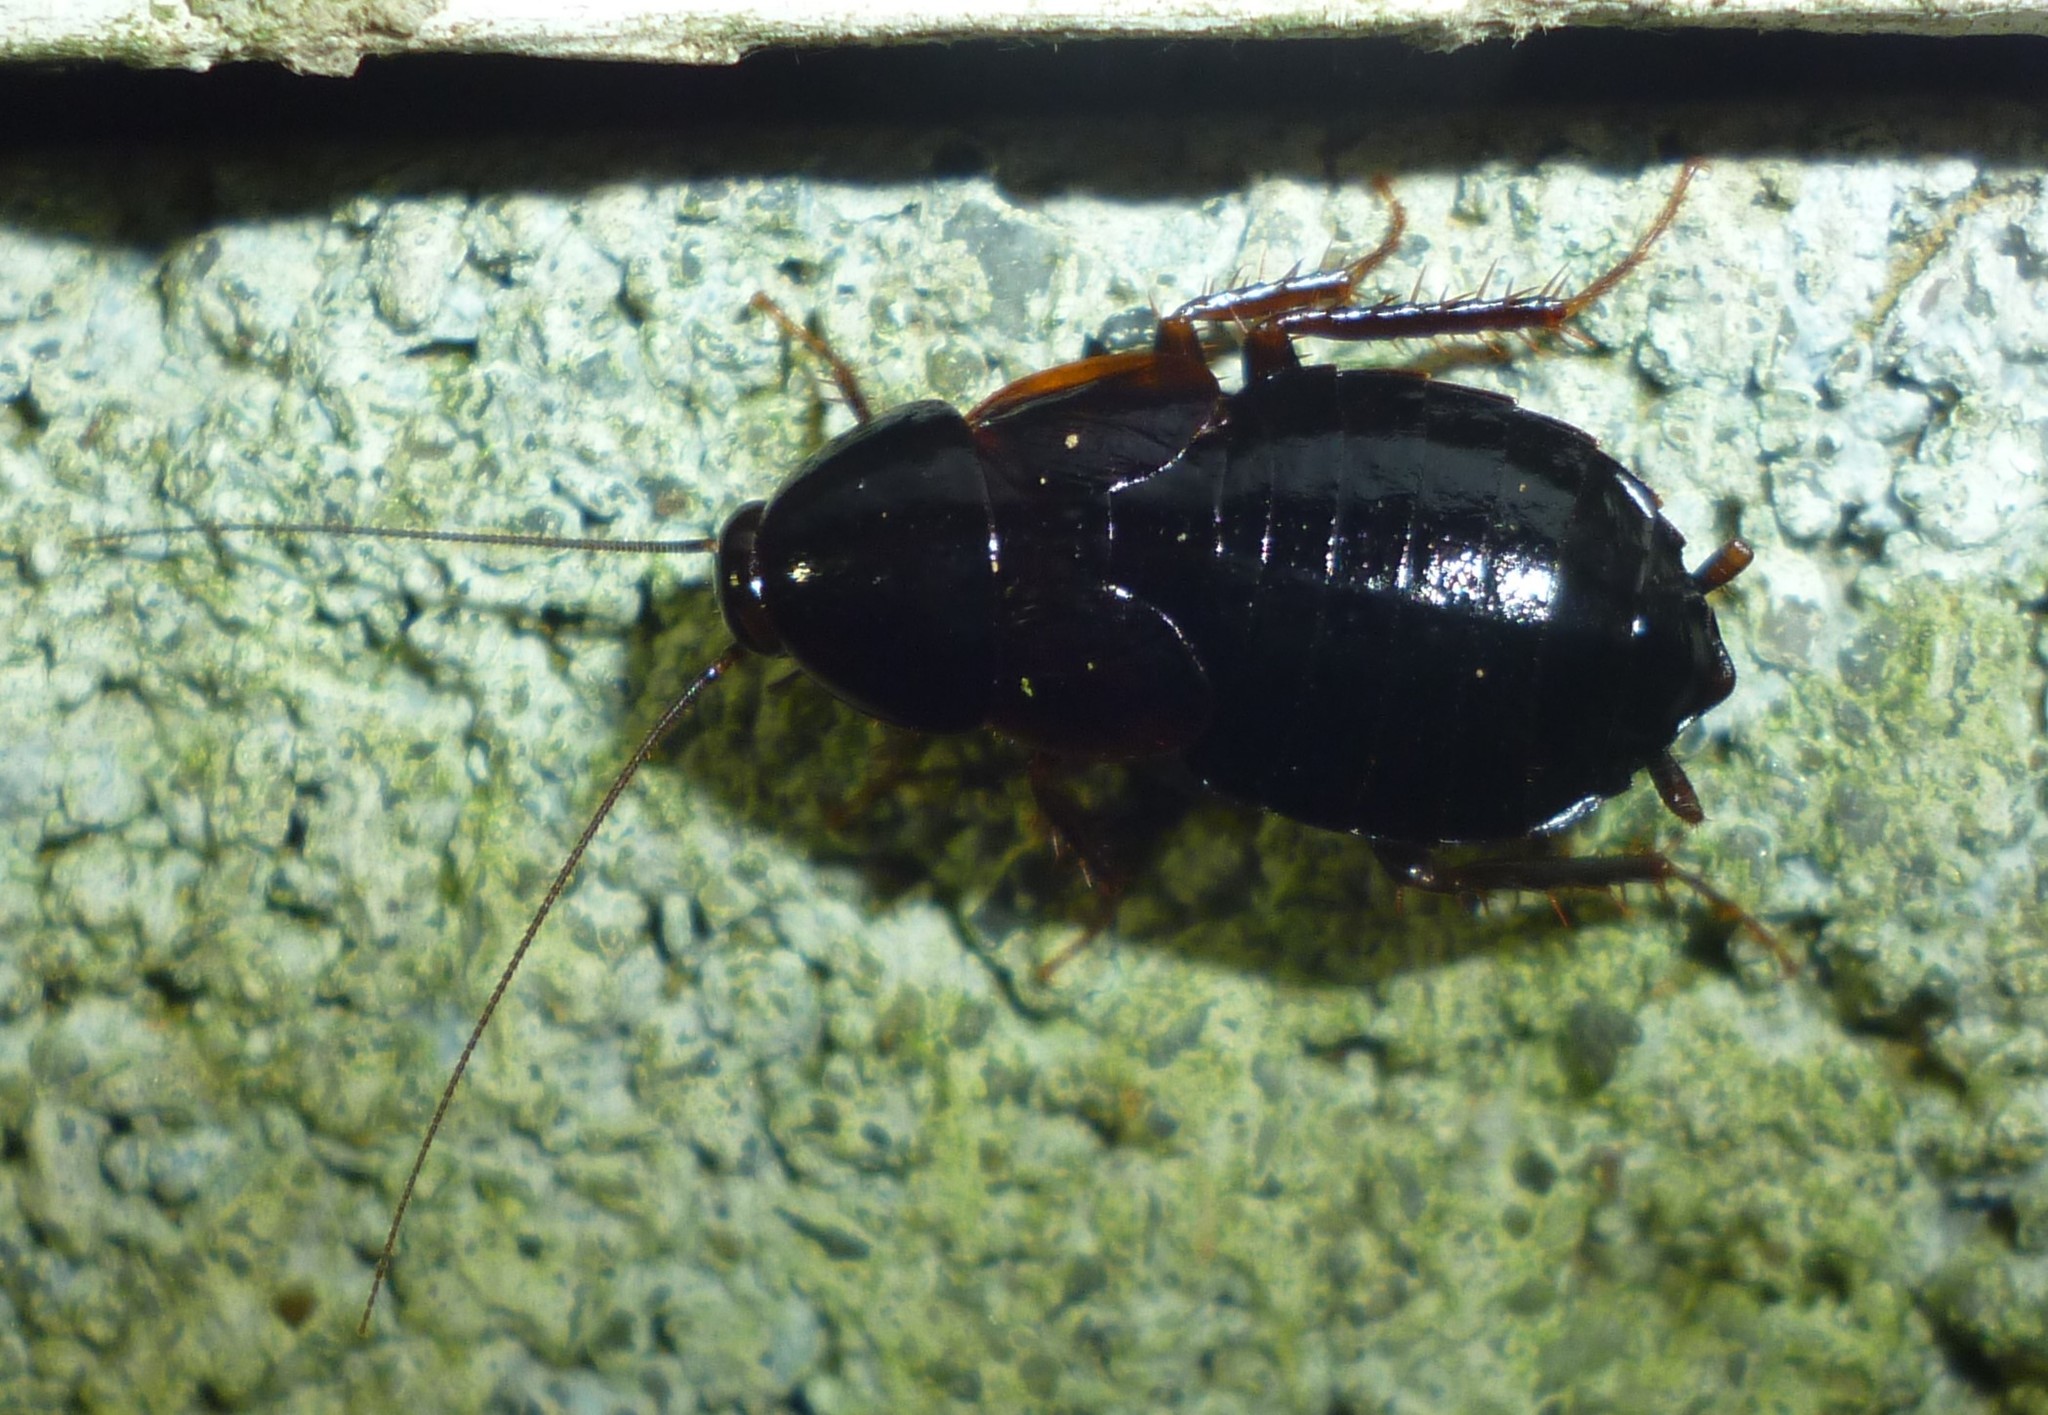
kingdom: Animalia
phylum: Arthropoda
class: Insecta
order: Blattodea
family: Ectobiidae
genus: Parcoblatta
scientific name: Parcoblatta uhleriana
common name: Uhler's wood cockroach
